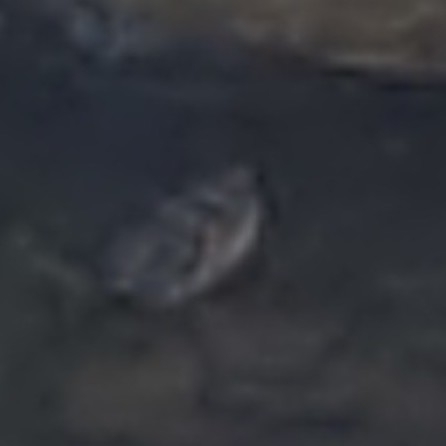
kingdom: Animalia
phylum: Chordata
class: Amphibia
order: Anura
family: Bufonidae
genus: Anaxyrus
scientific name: Anaxyrus americanus
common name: American toad
